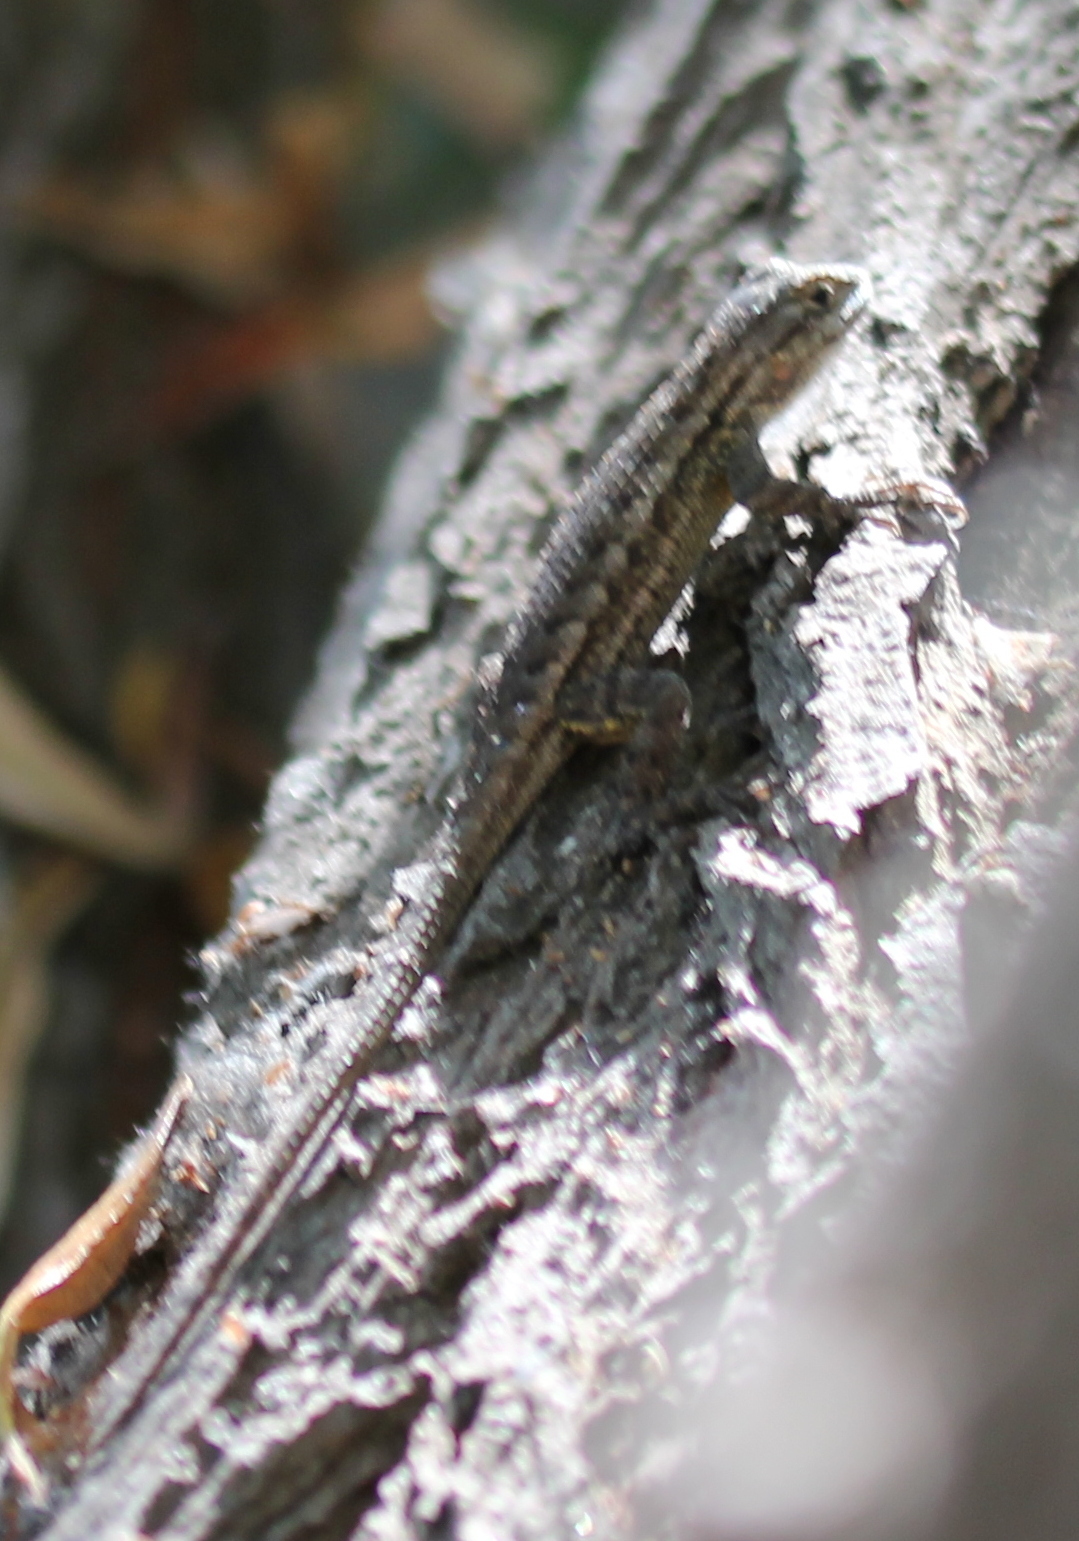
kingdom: Animalia
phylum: Chordata
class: Squamata
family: Phrynosomatidae
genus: Sceloporus
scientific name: Sceloporus occidentalis
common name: Western fence lizard
